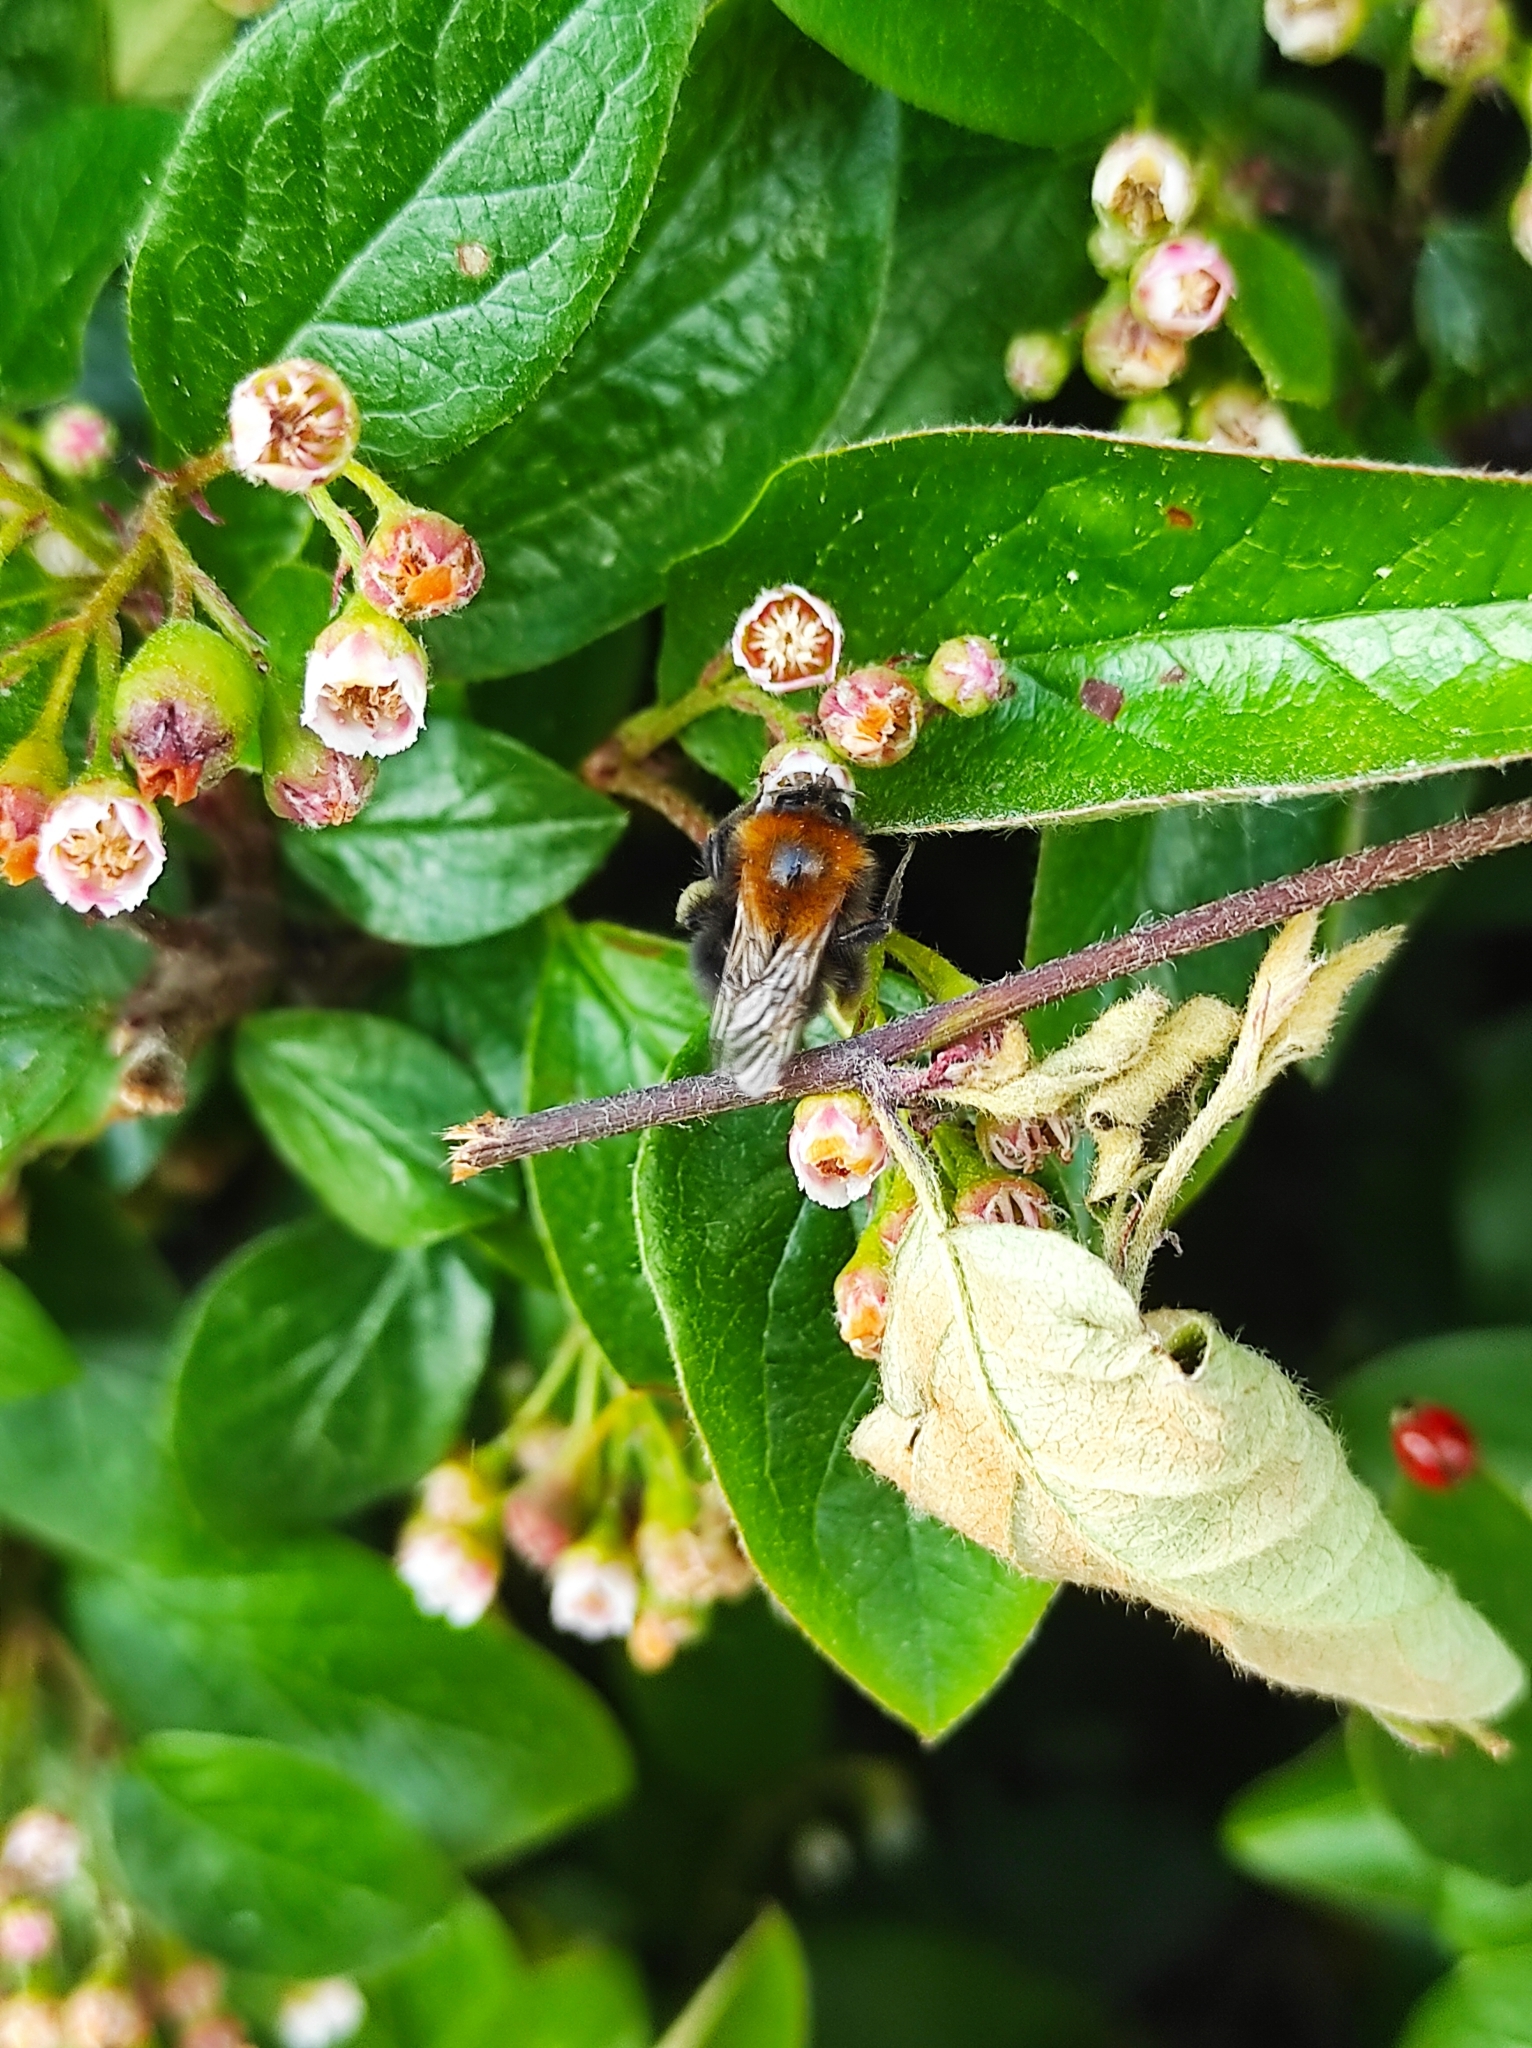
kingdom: Animalia
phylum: Arthropoda
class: Insecta
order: Hymenoptera
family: Apidae
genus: Bombus
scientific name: Bombus hypnorum
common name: New garden bumblebee
